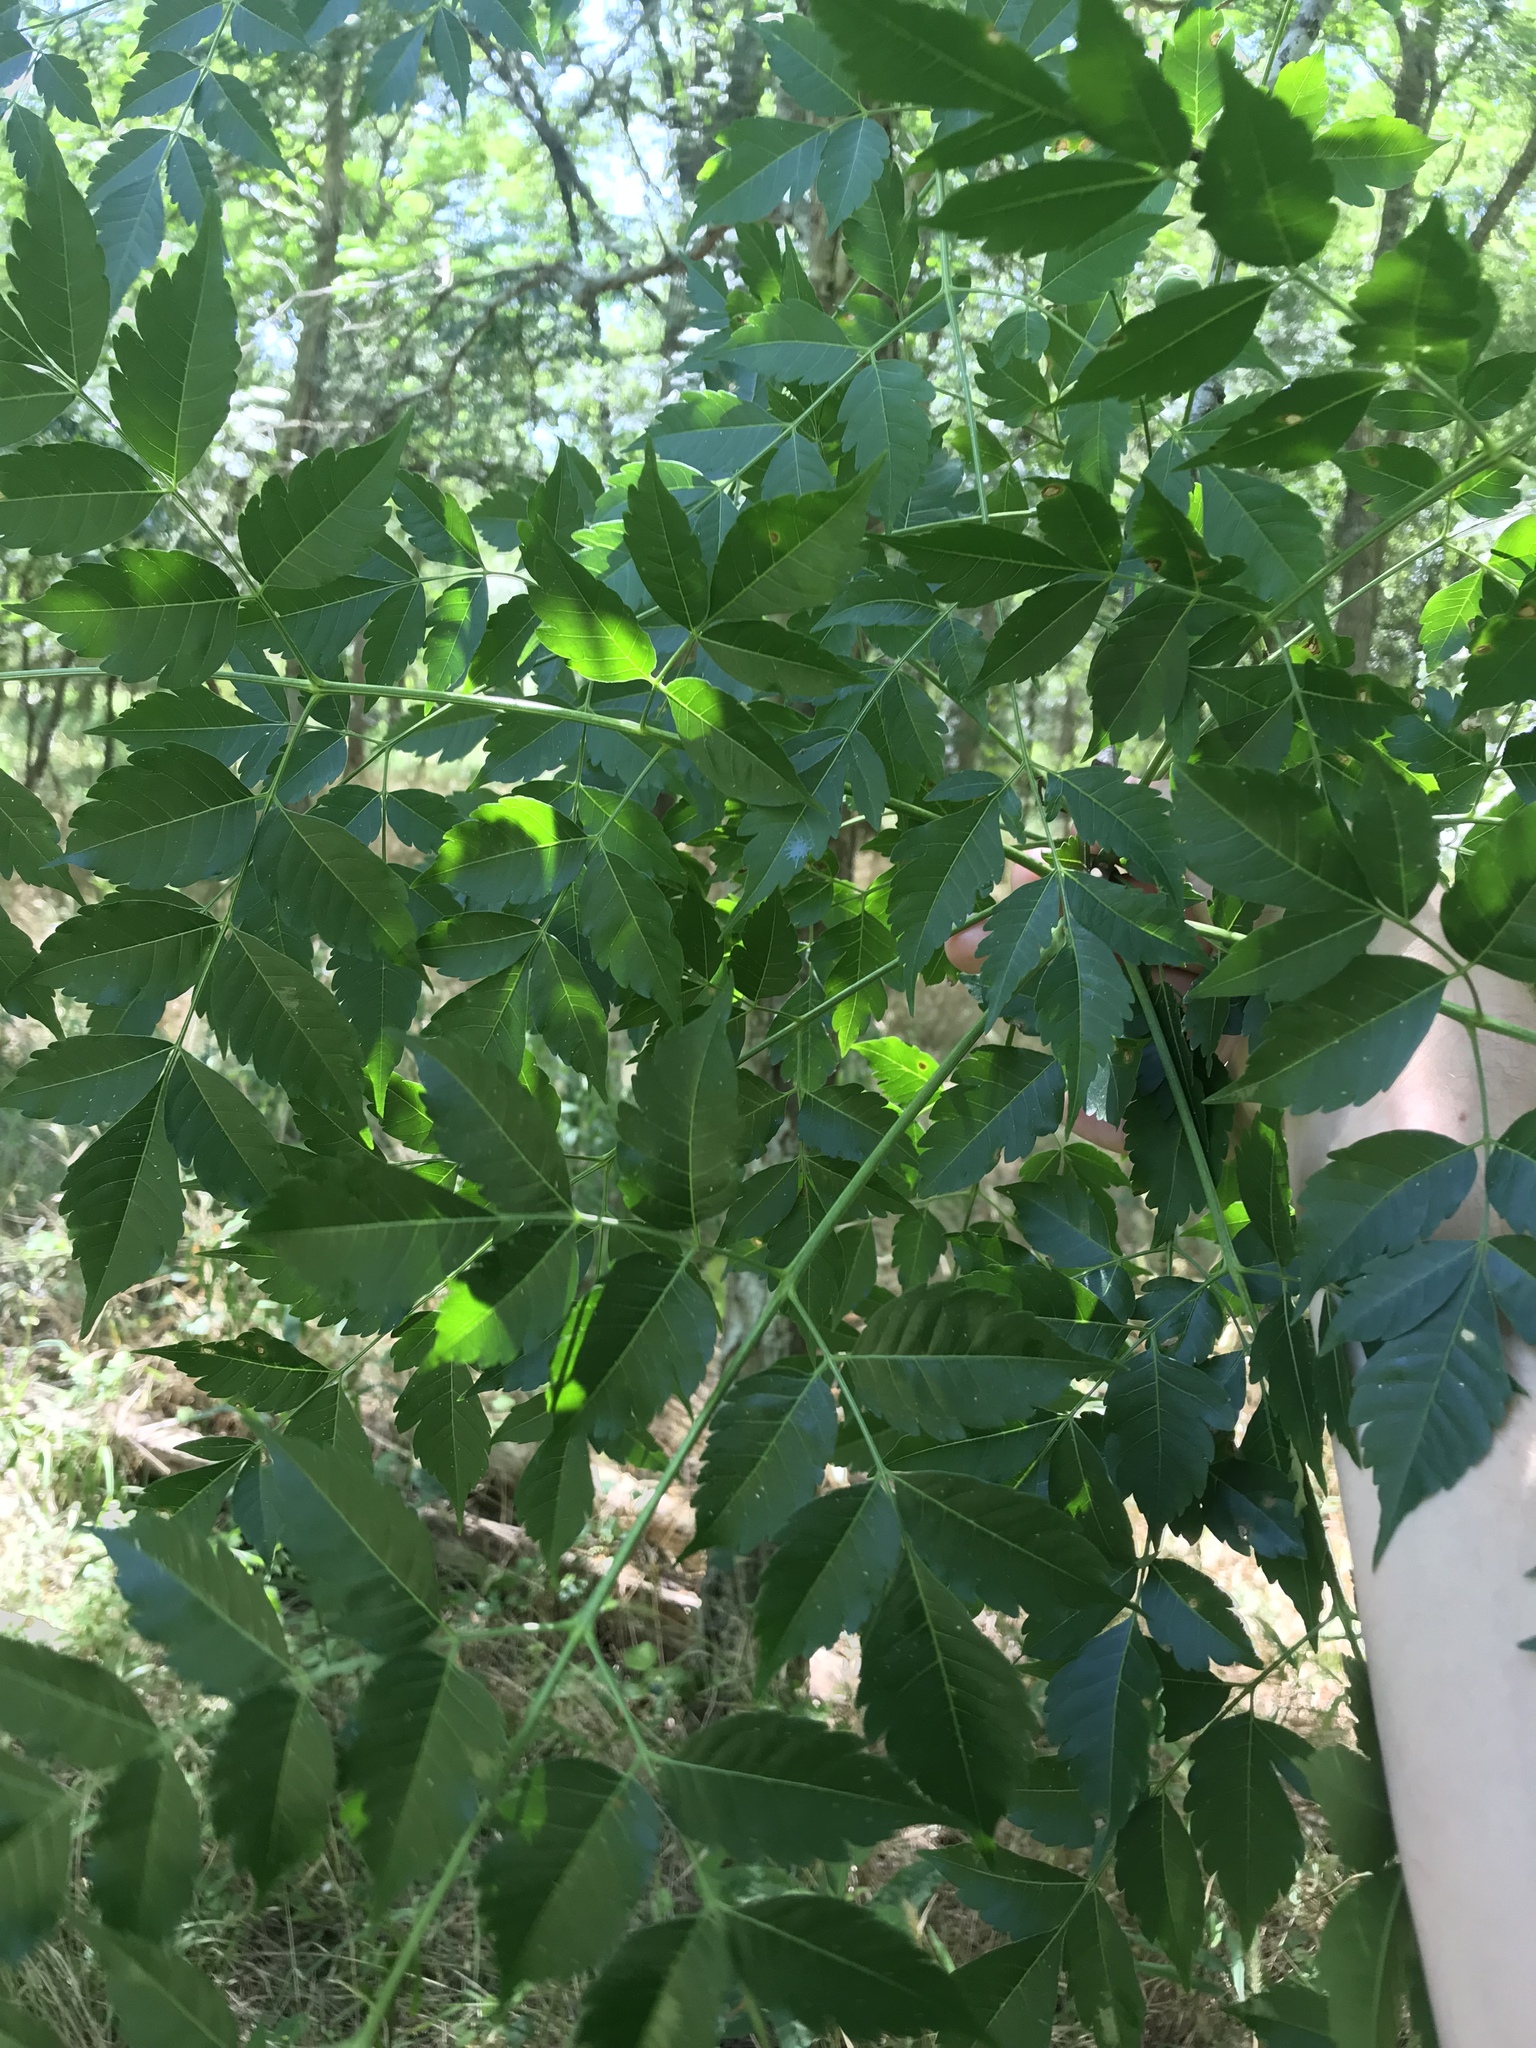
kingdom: Plantae
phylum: Tracheophyta
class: Magnoliopsida
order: Sapindales
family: Meliaceae
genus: Melia
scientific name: Melia azedarach
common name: Chinaberrytree
